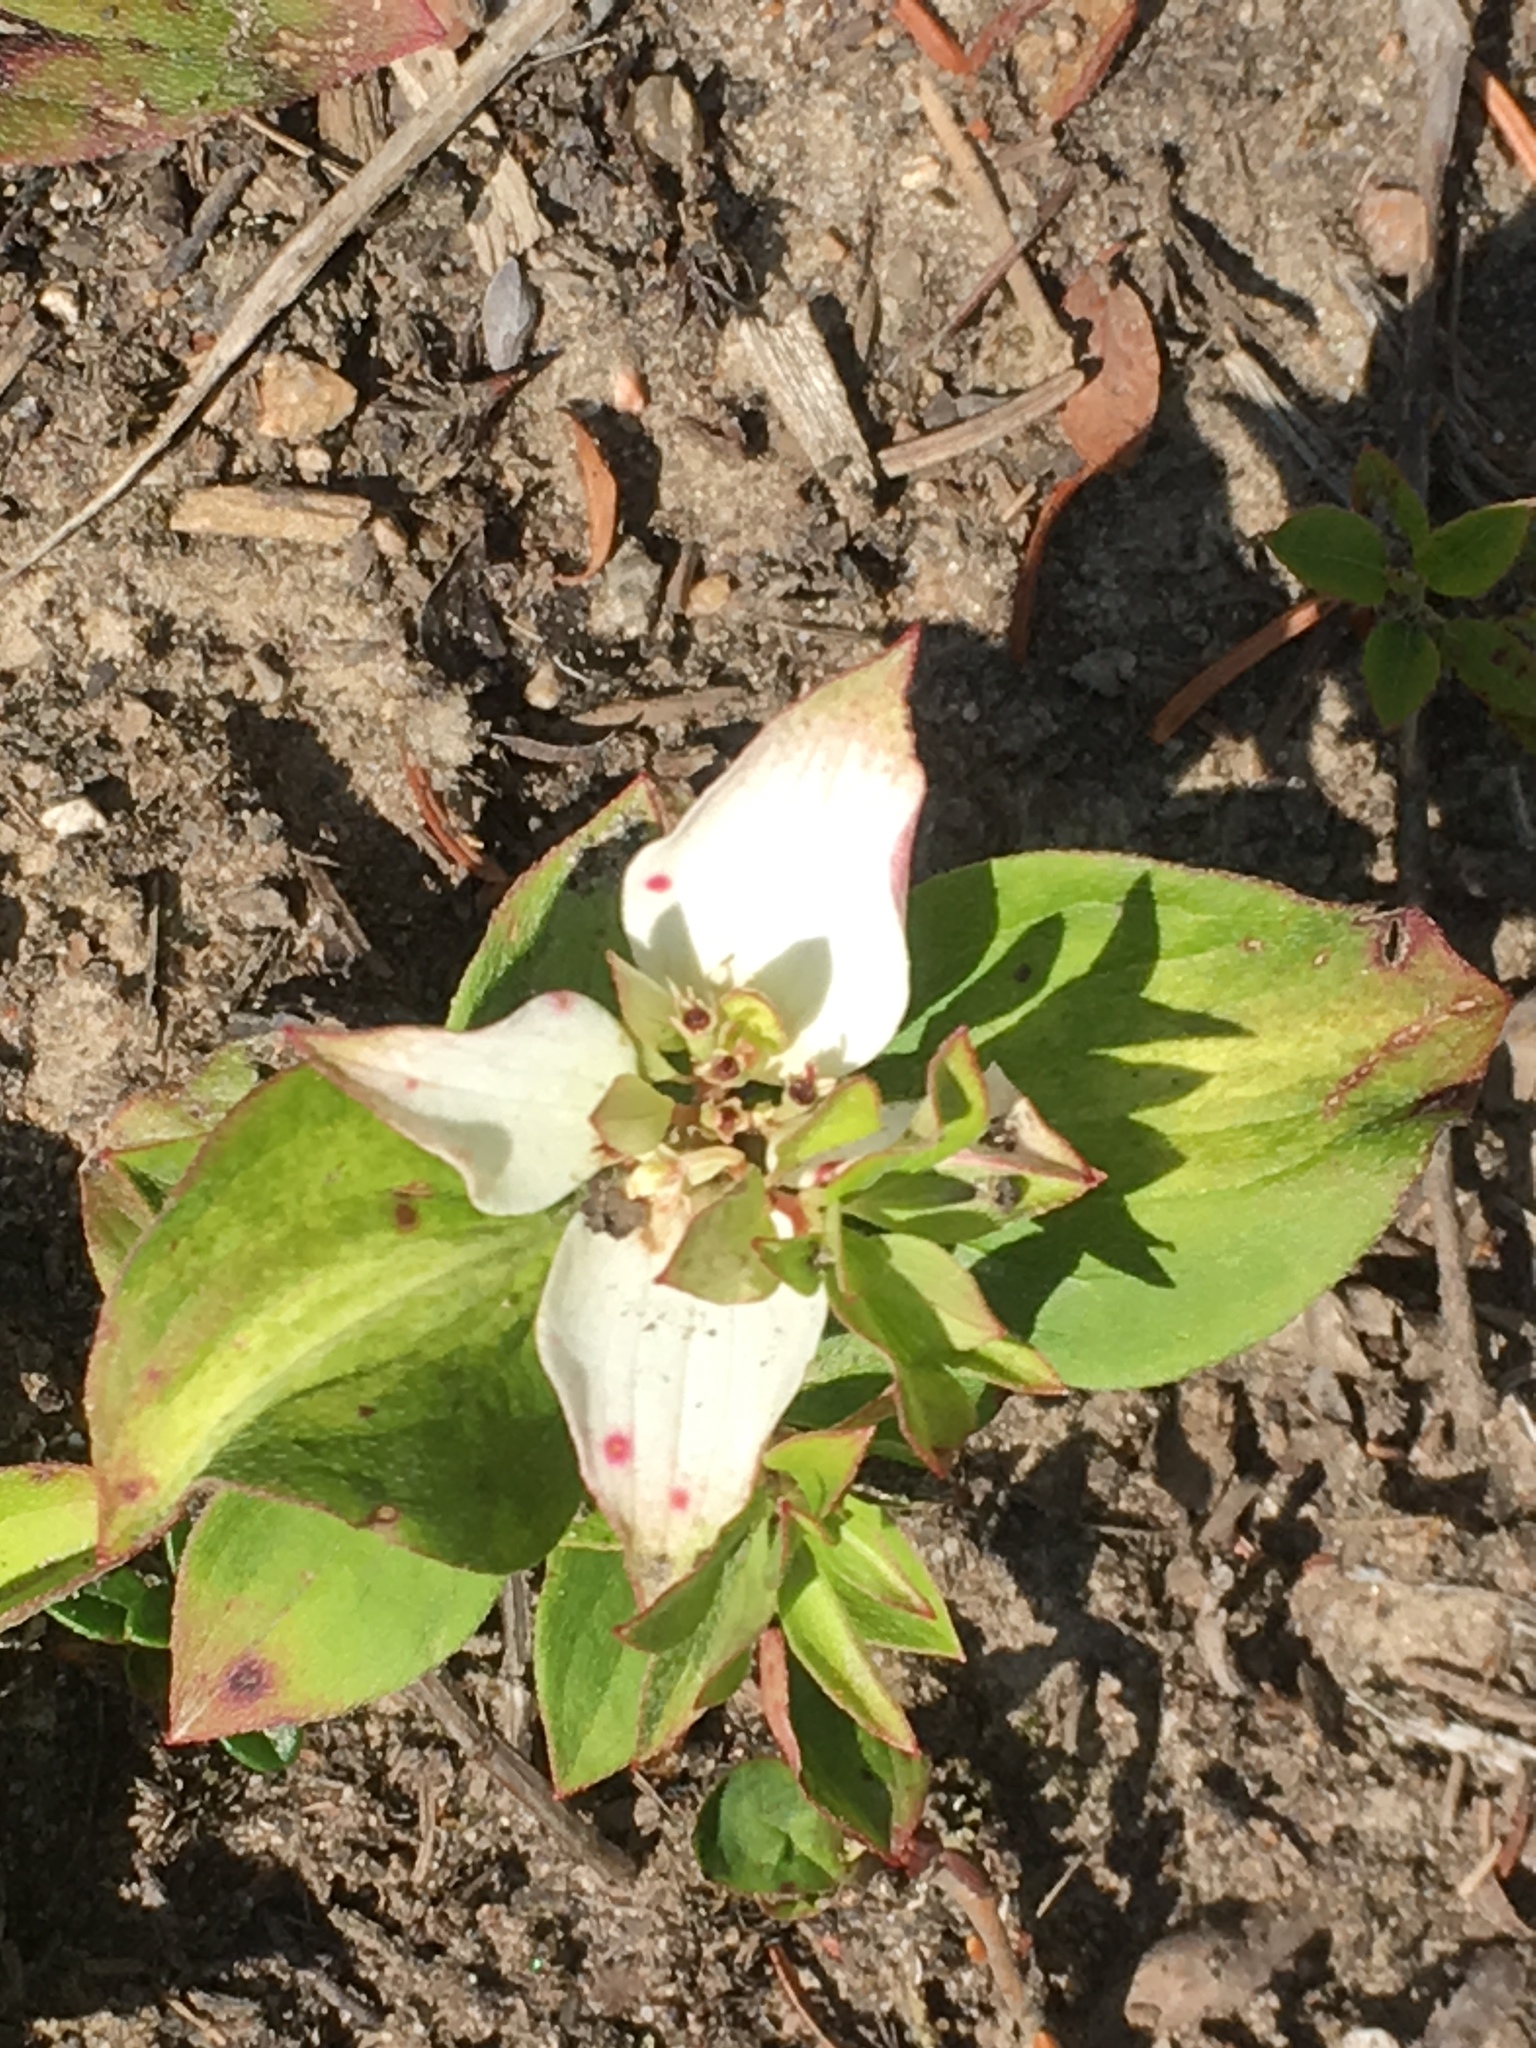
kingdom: Plantae
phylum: Tracheophyta
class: Magnoliopsida
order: Cornales
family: Cornaceae
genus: Cornus
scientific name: Cornus canadensis
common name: Creeping dogwood
